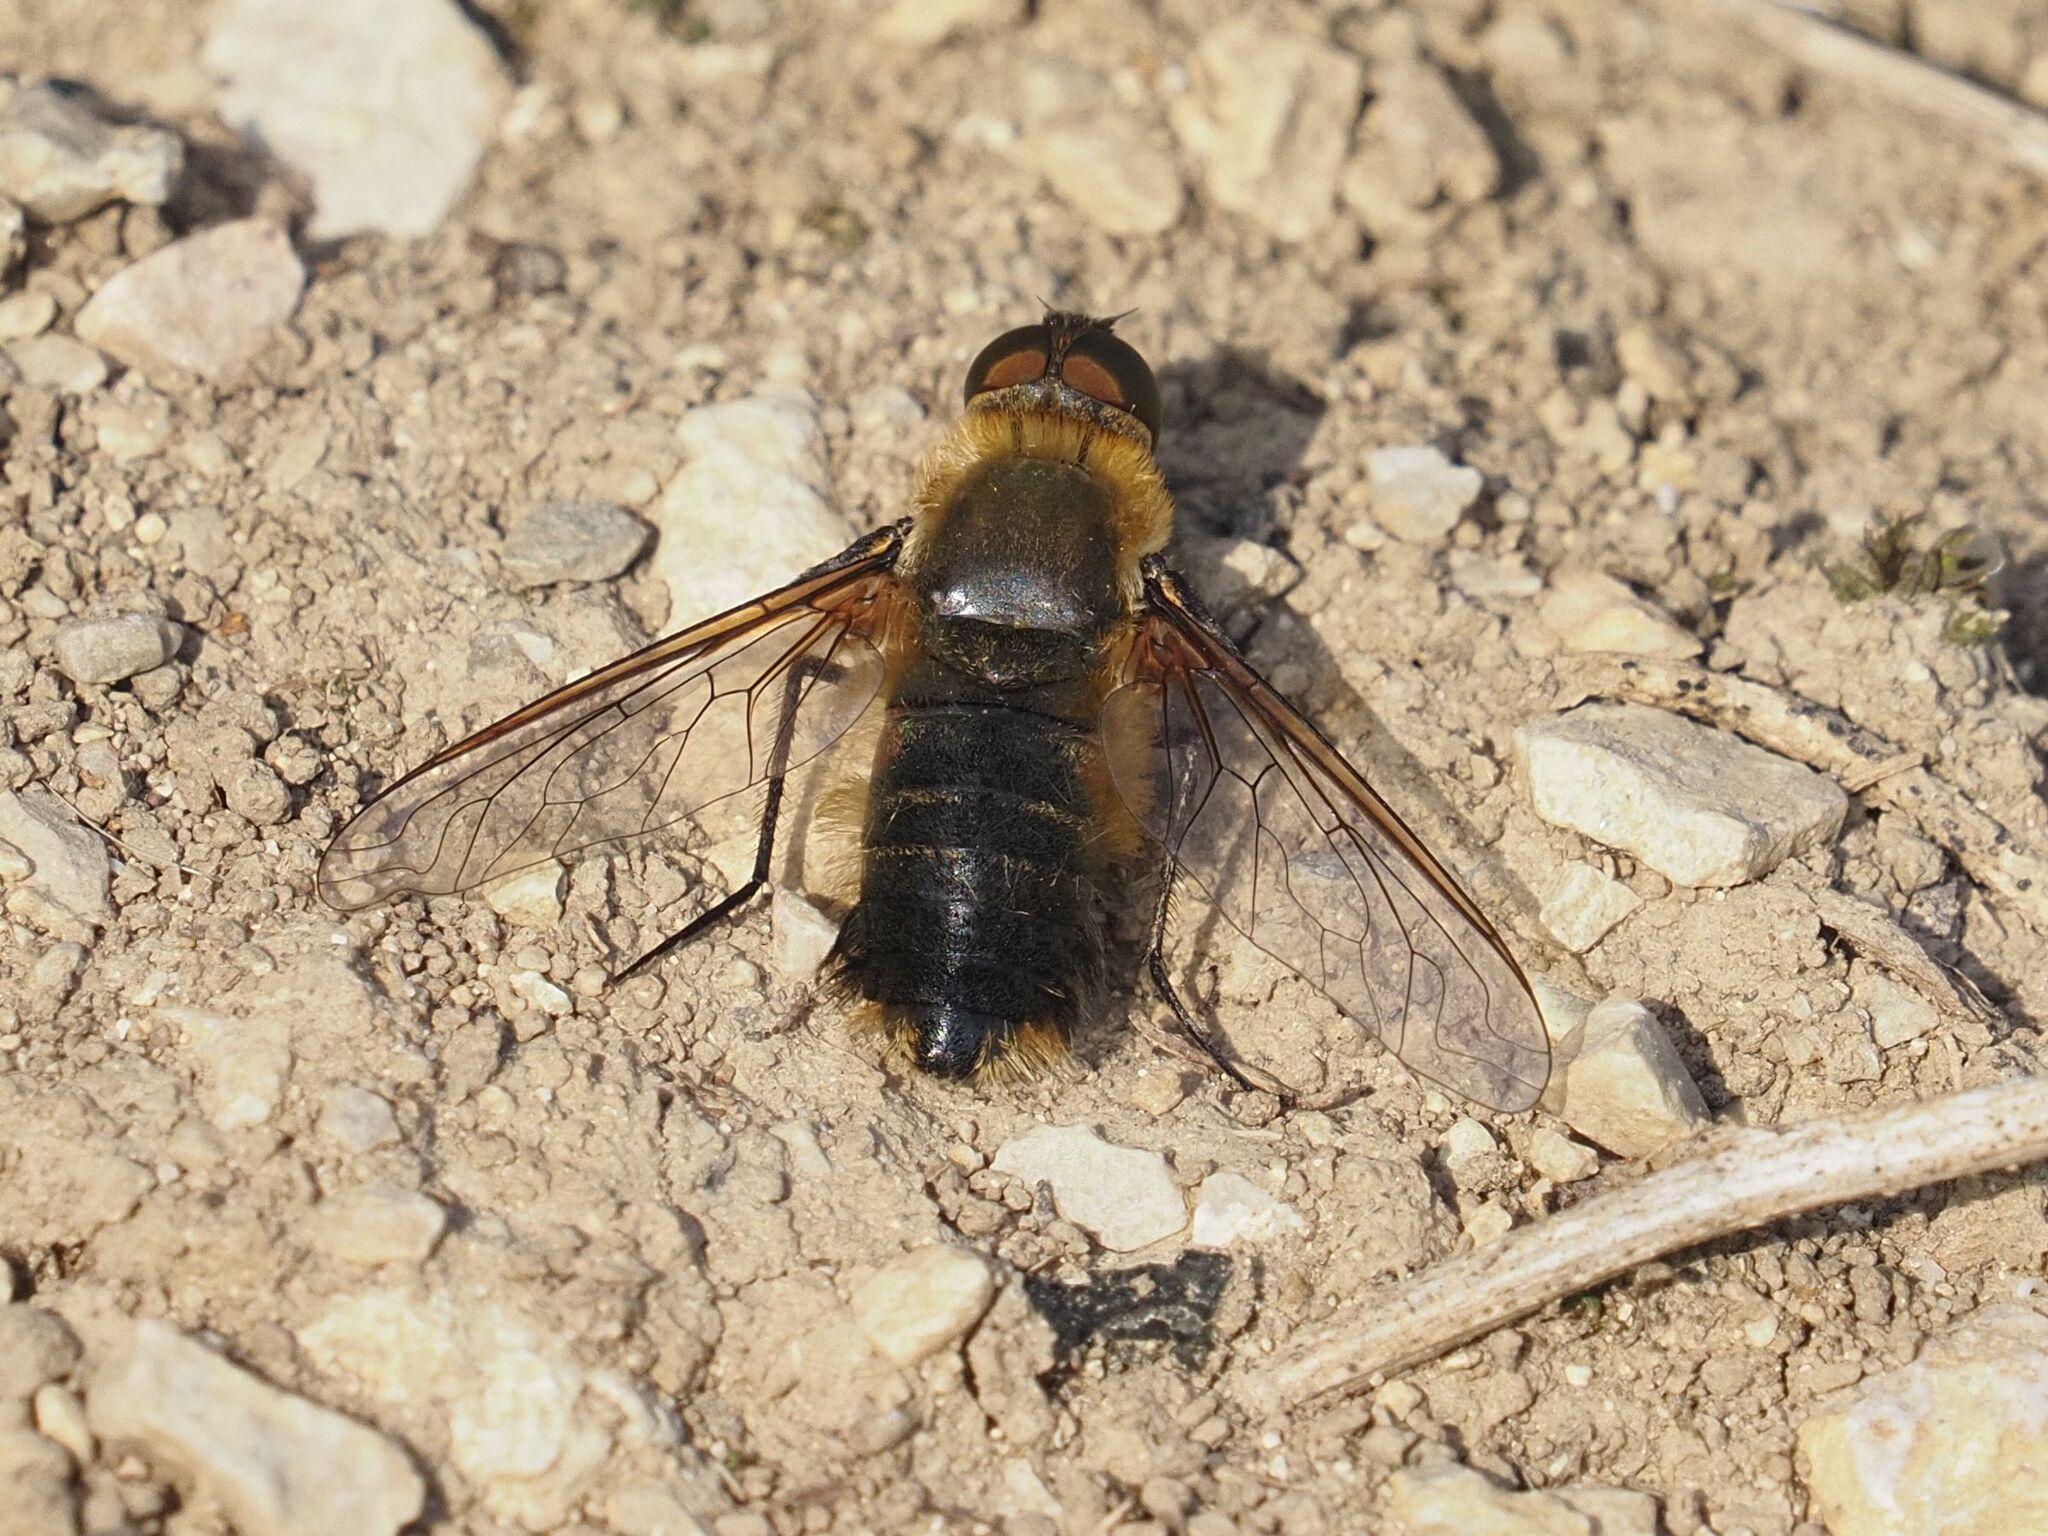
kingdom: Animalia
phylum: Arthropoda
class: Insecta
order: Diptera
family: Bombyliidae
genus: Villa
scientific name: Villa hottentotta
